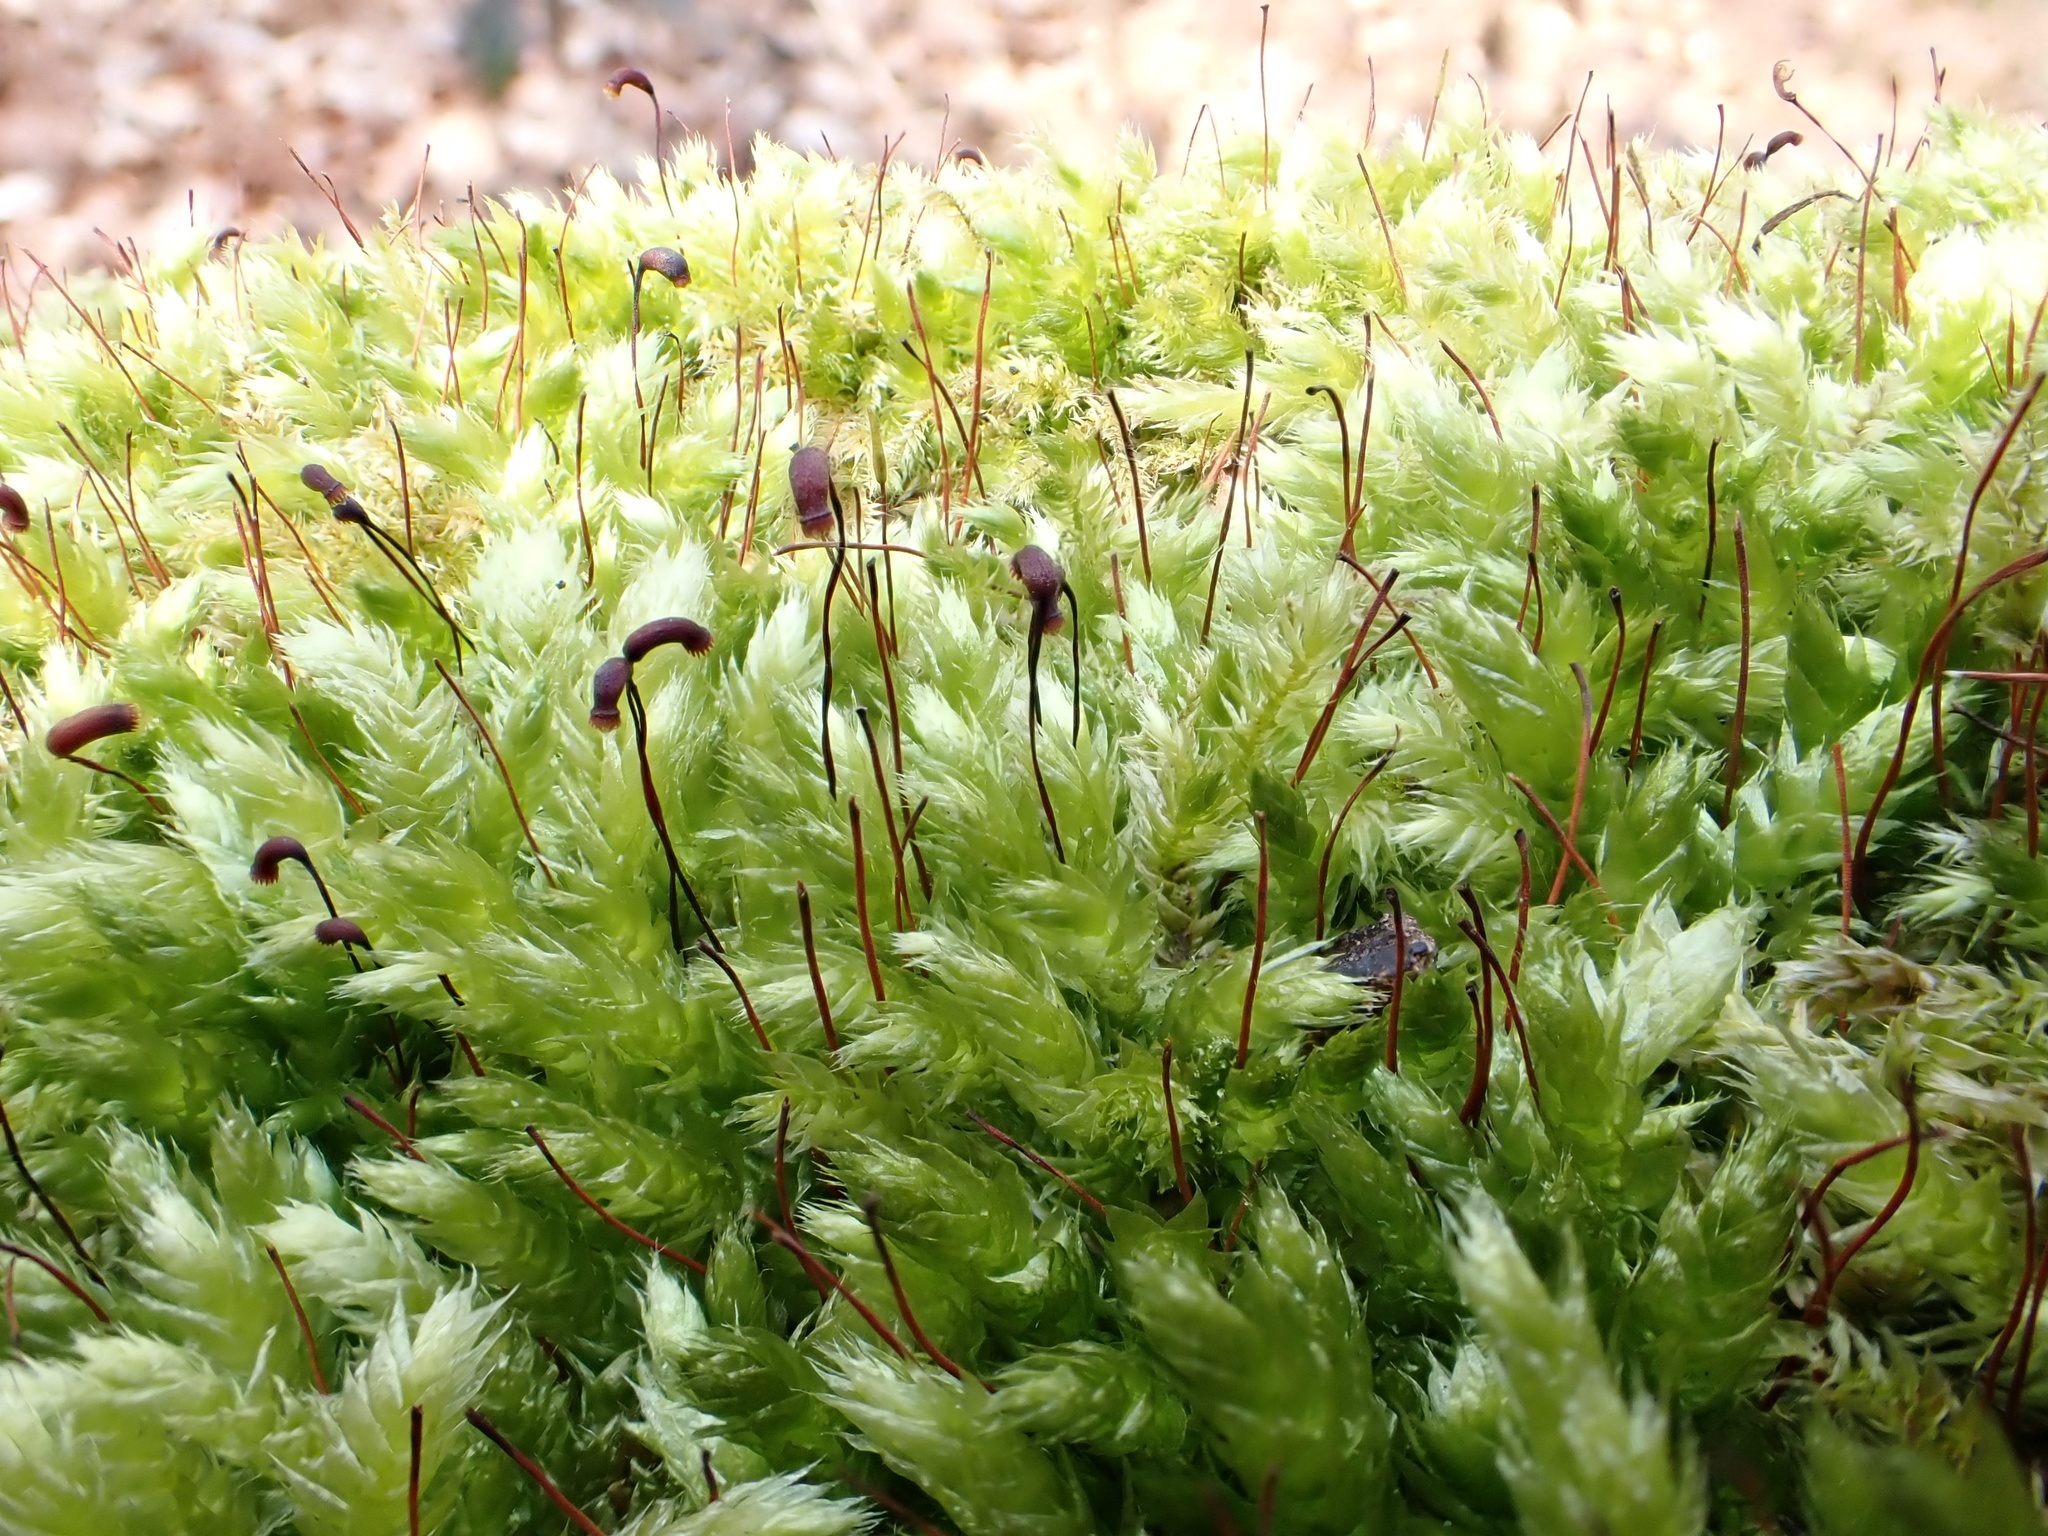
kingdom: Plantae
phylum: Bryophyta
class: Bryopsida
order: Hypnales
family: Brachytheciaceae
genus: Brachythecium
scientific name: Brachythecium rutabulum
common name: Rough-stalked feather-moss
